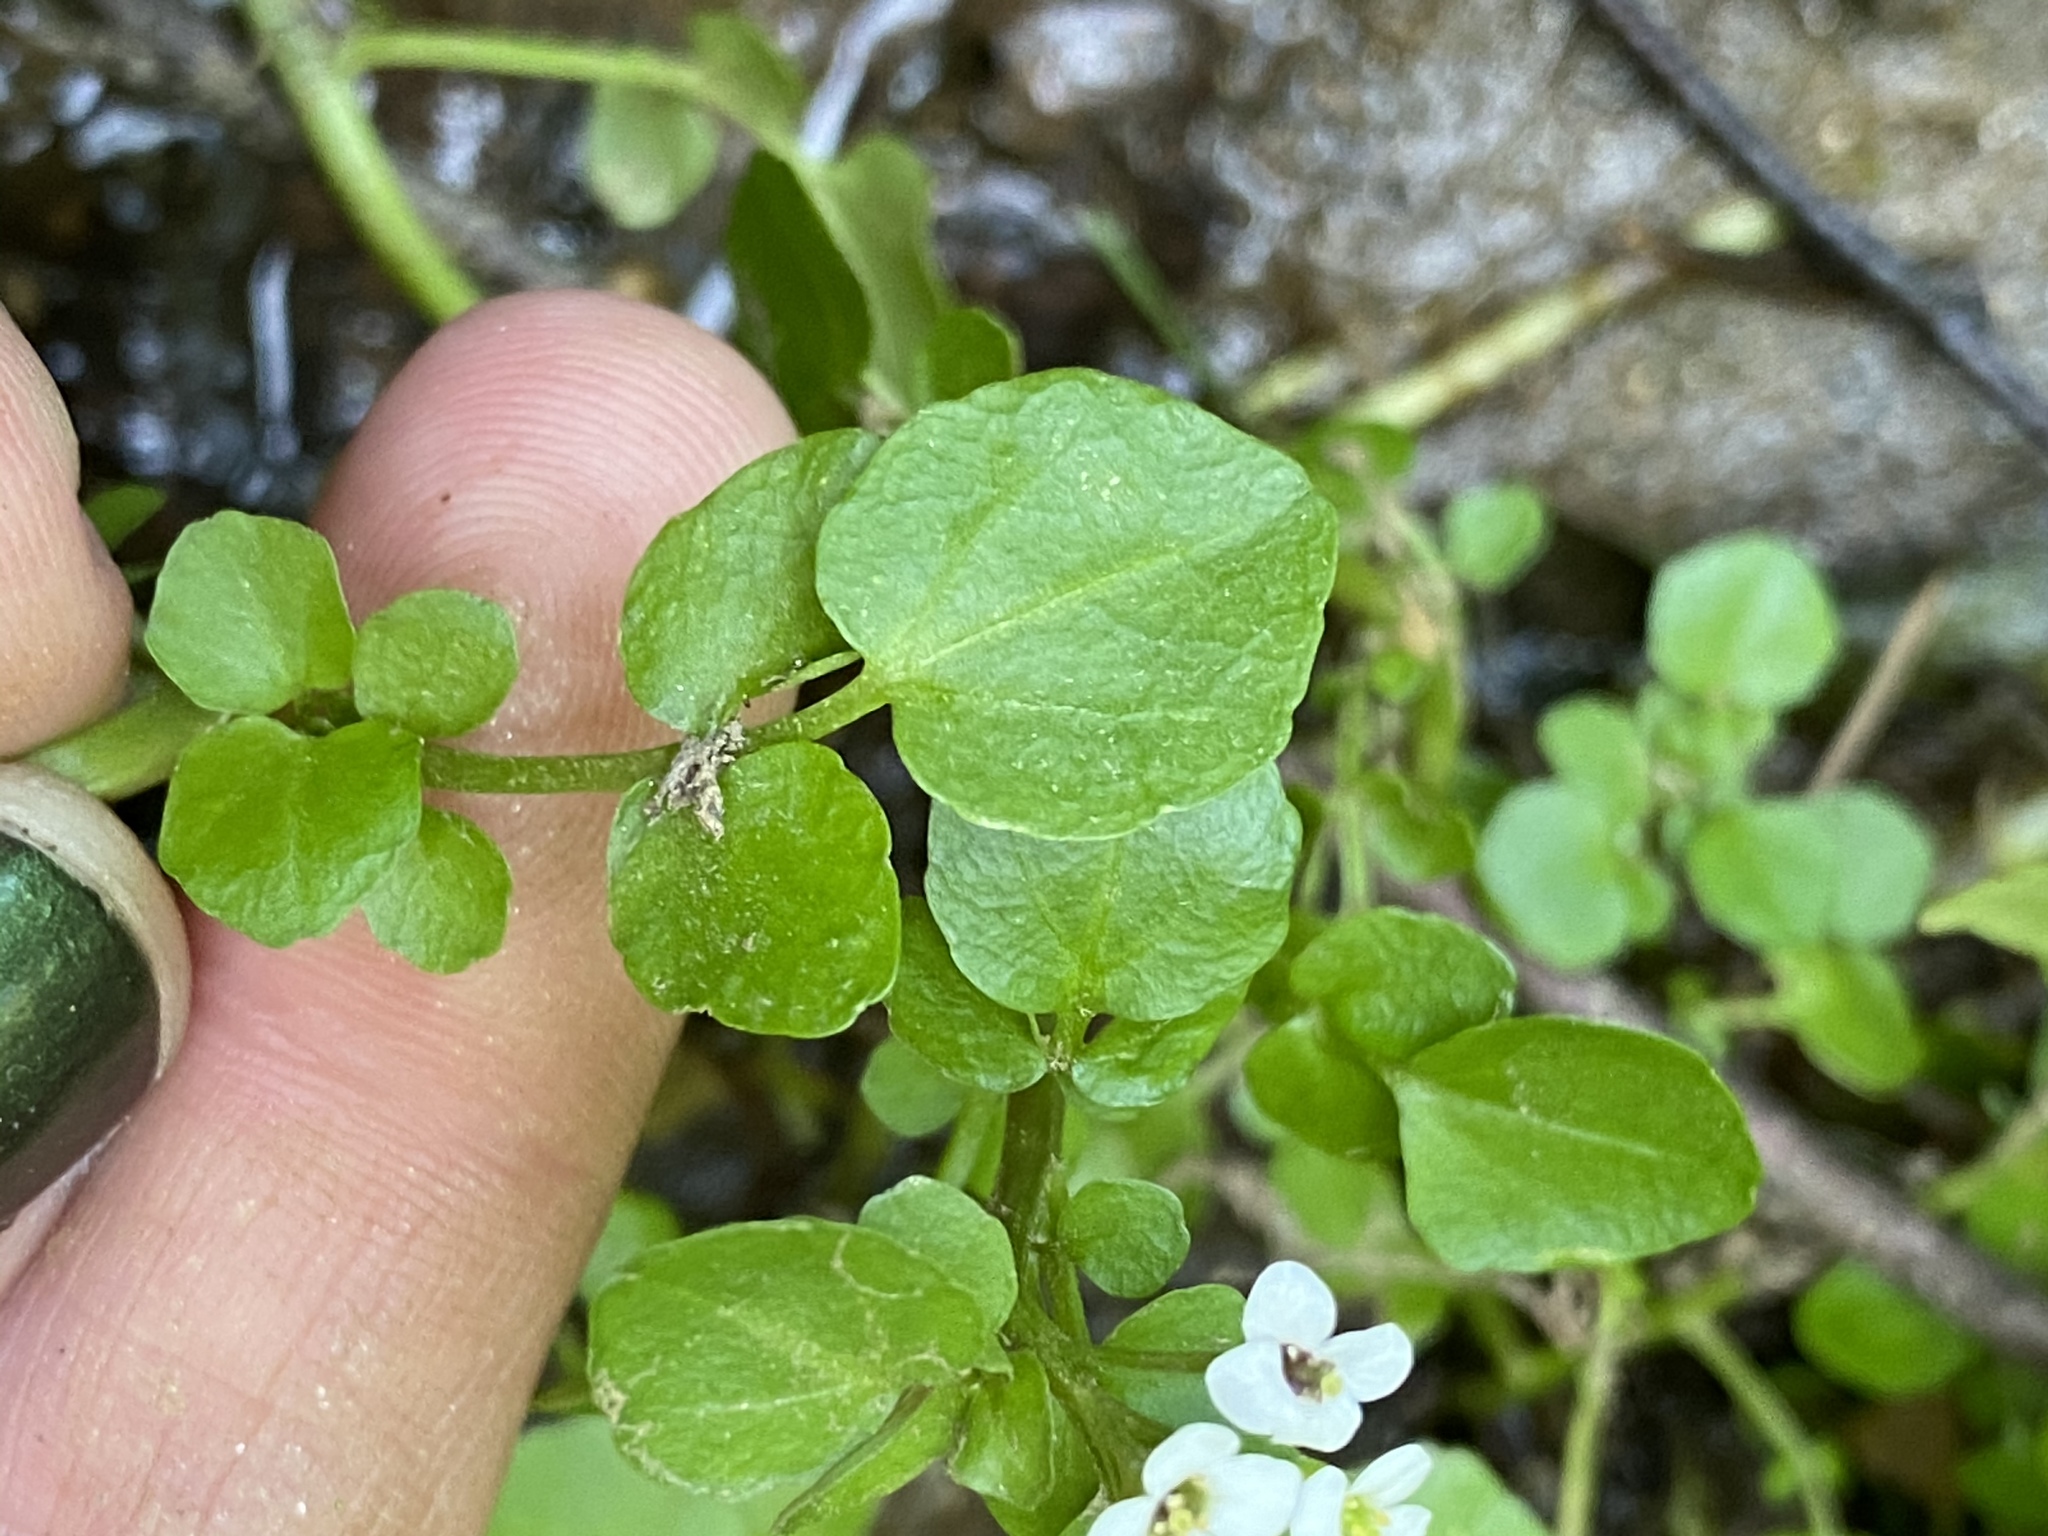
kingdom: Plantae
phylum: Tracheophyta
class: Magnoliopsida
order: Brassicales
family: Brassicaceae
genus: Nasturtium
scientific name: Nasturtium officinale
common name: Watercress
